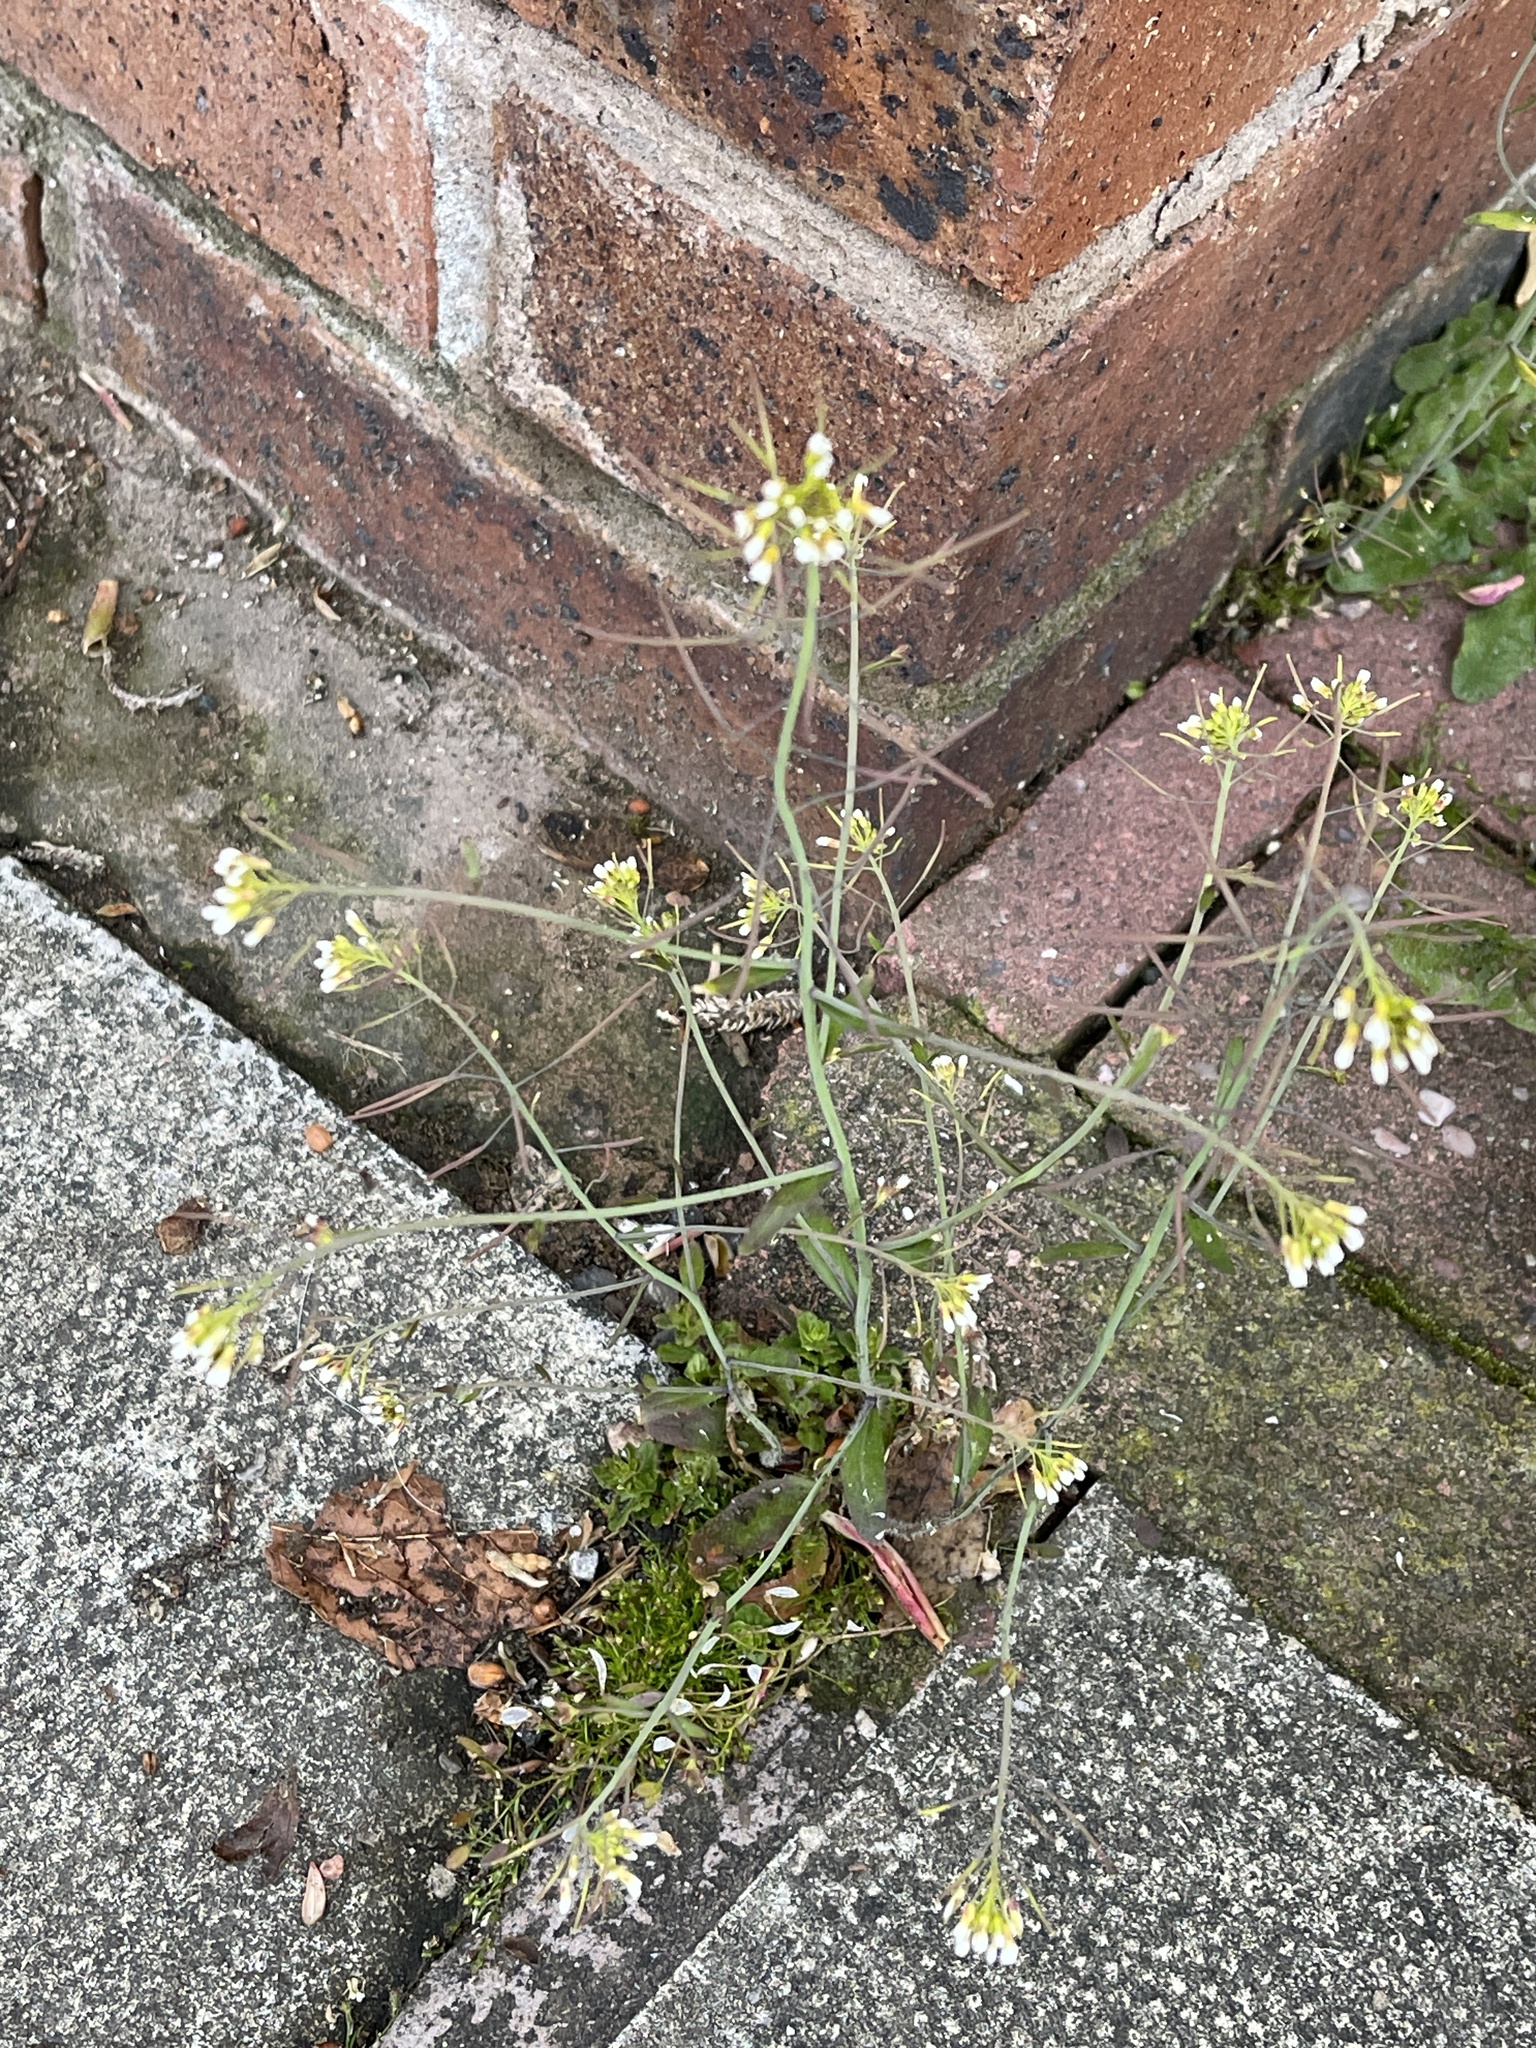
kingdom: Plantae
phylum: Tracheophyta
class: Magnoliopsida
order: Brassicales
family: Brassicaceae
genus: Arabidopsis
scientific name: Arabidopsis thaliana
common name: Thale cress
